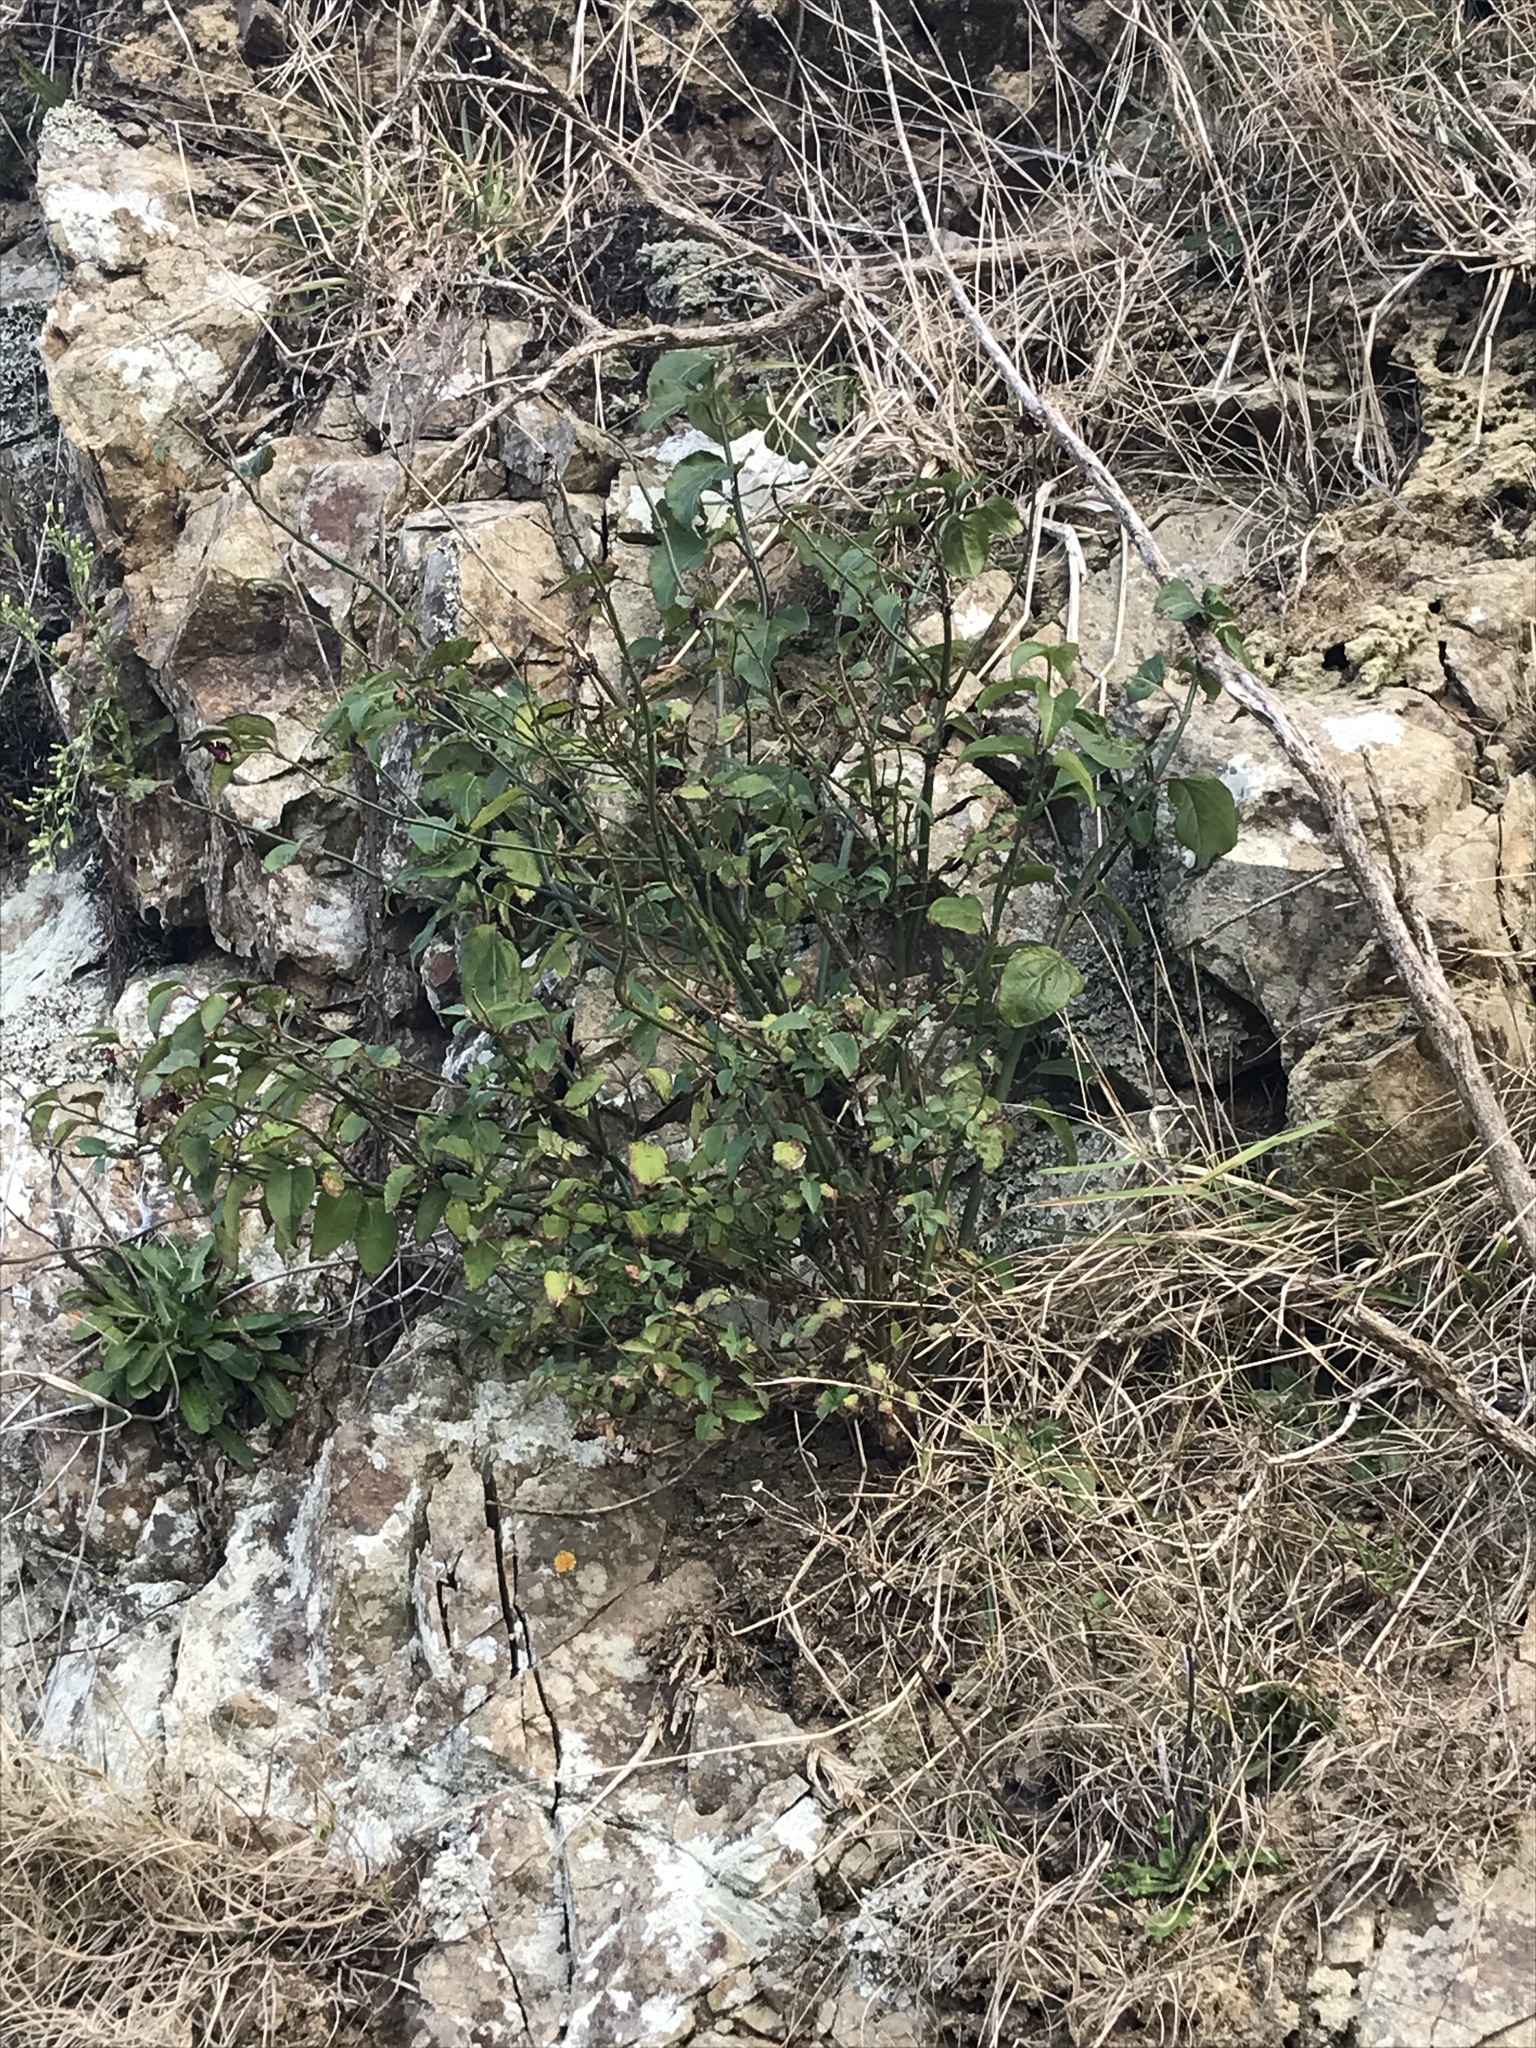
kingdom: Plantae
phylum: Tracheophyta
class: Magnoliopsida
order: Dipsacales
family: Caprifoliaceae
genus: Leycesteria
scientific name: Leycesteria formosa
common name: Himalayan honeysuckle
